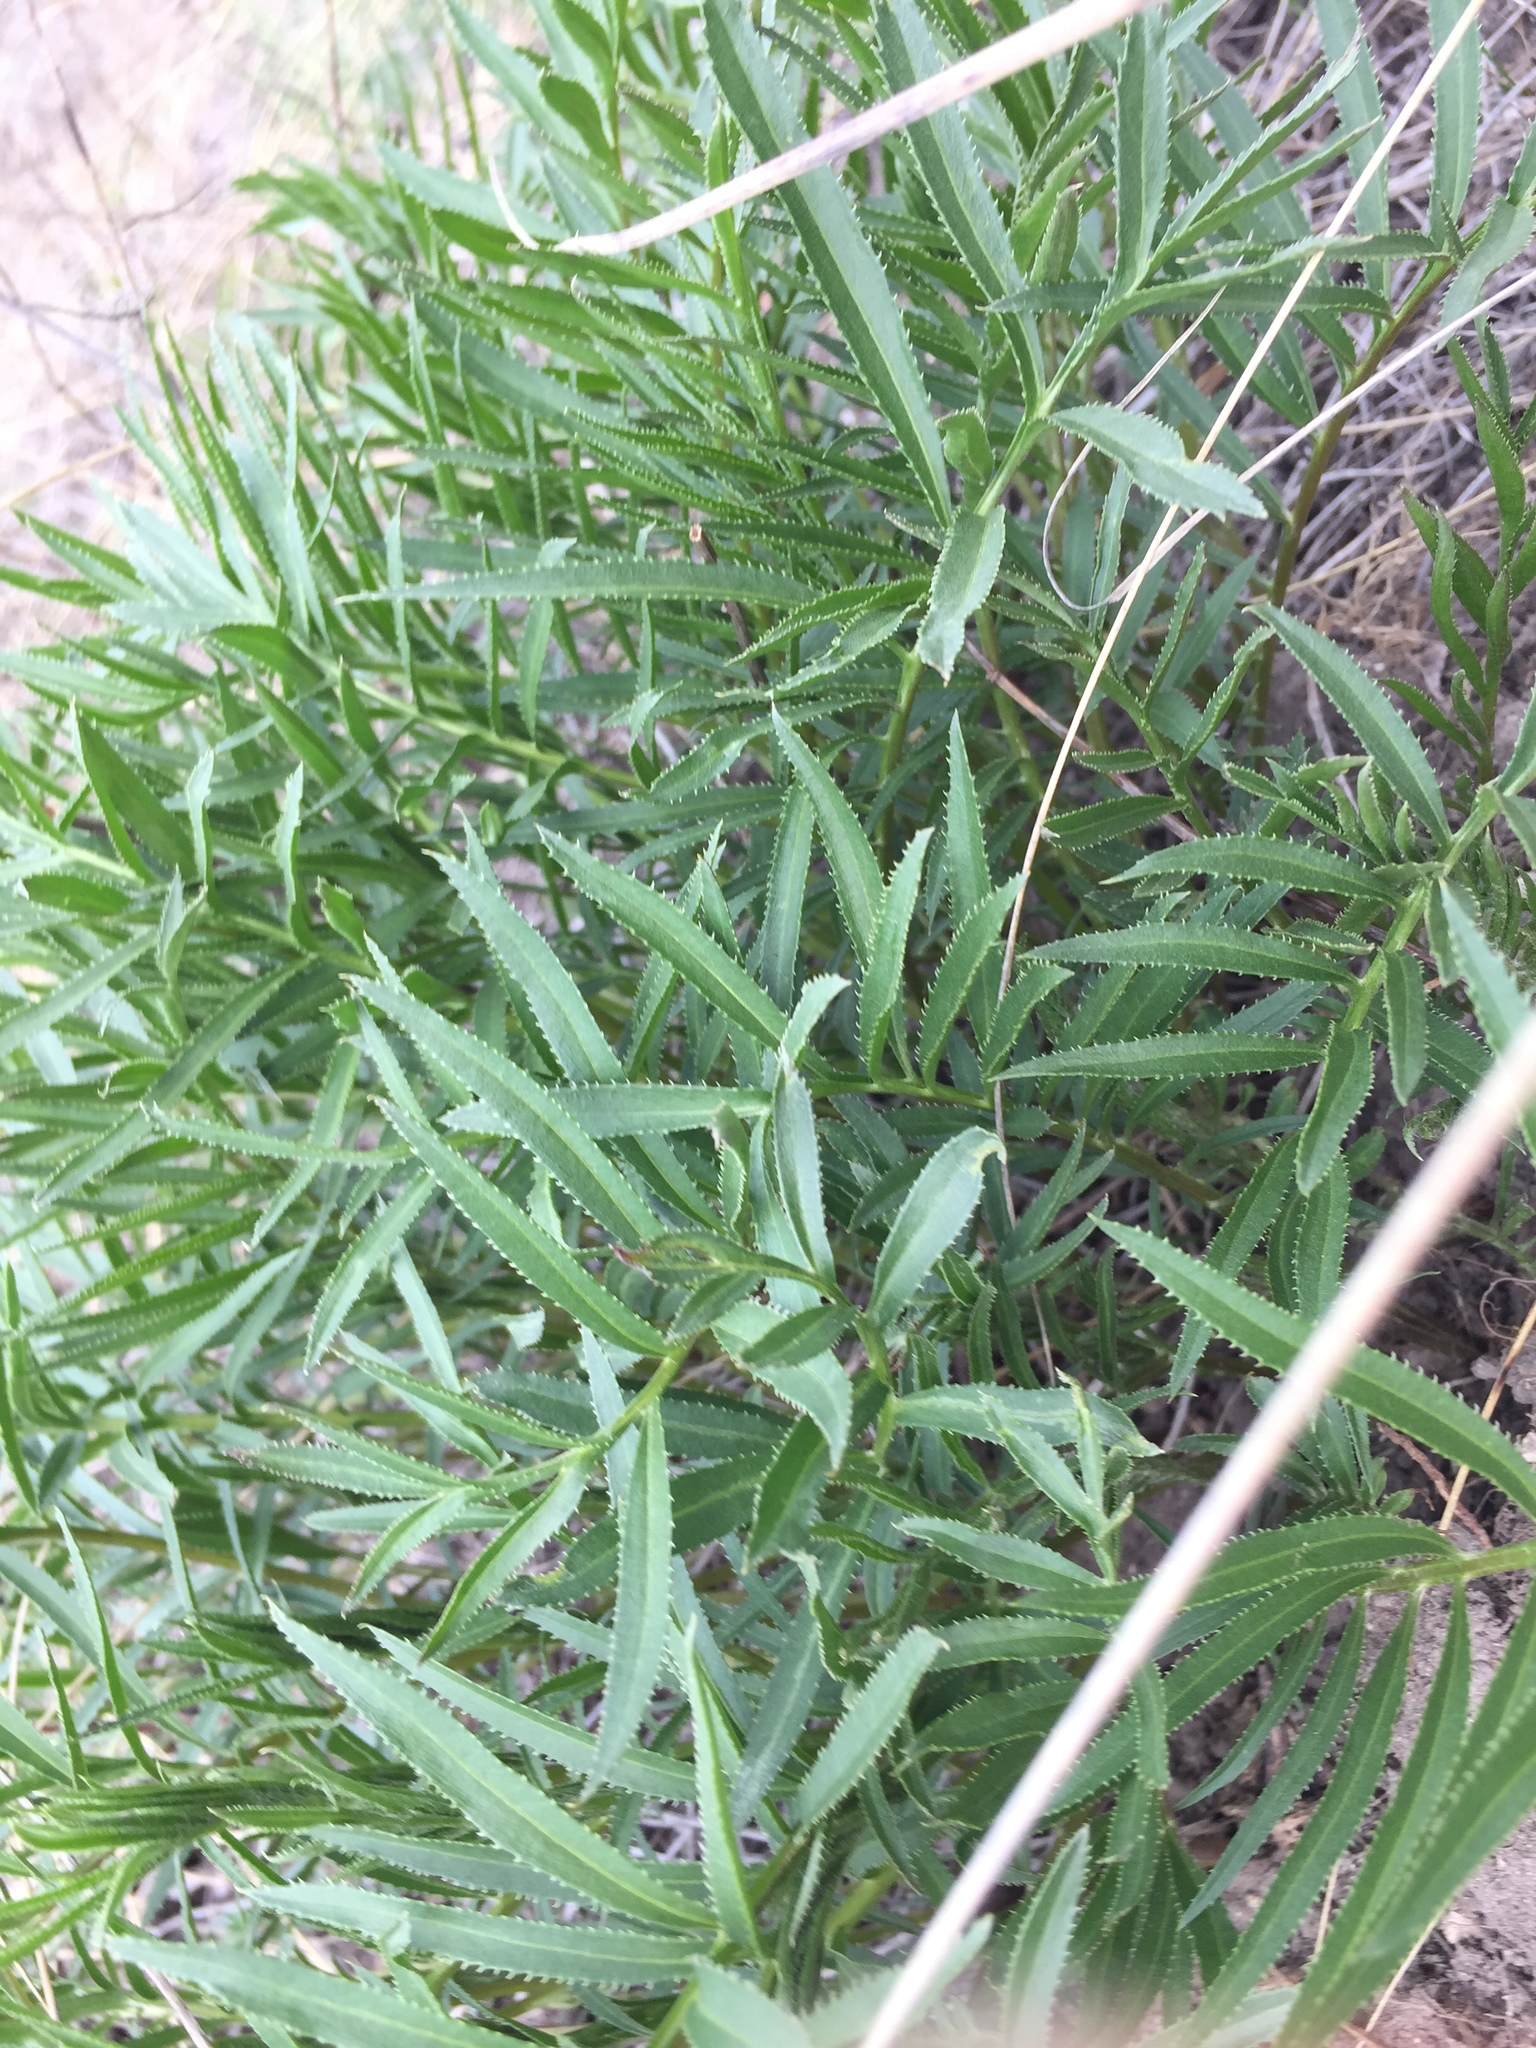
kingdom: Plantae
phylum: Tracheophyta
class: Magnoliopsida
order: Asterales
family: Asteraceae
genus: Rhaponticoides
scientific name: Rhaponticoides ruthenica
